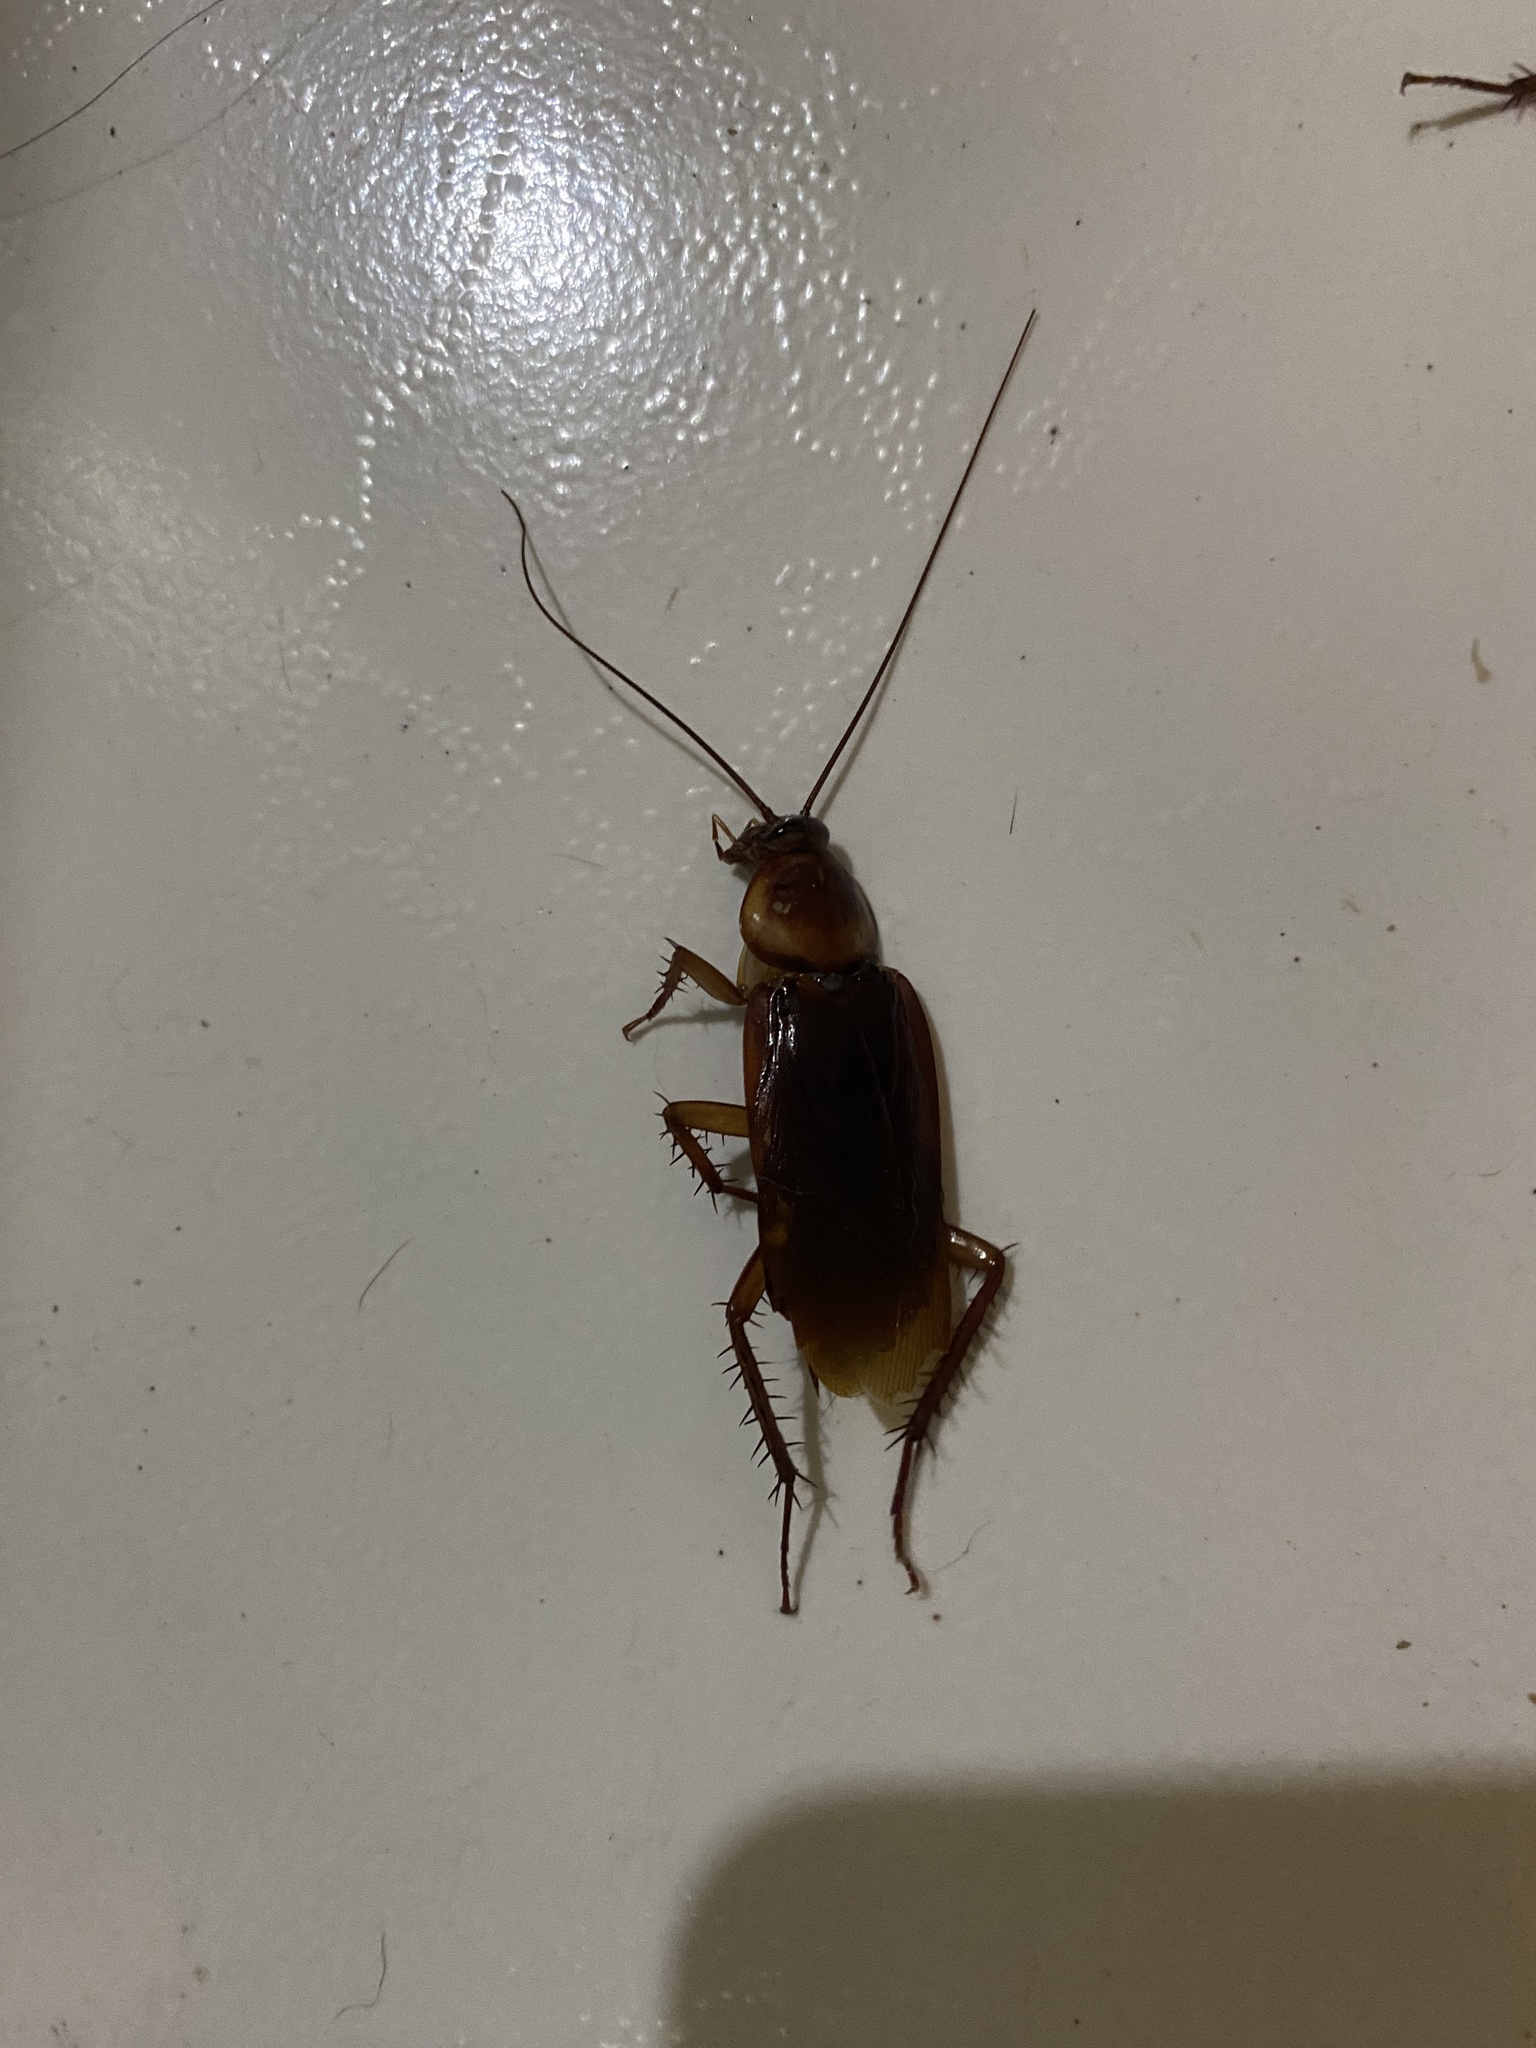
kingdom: Animalia
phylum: Arthropoda
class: Insecta
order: Blattodea
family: Blattidae
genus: Periplaneta
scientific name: Periplaneta americana
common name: American cockroach
